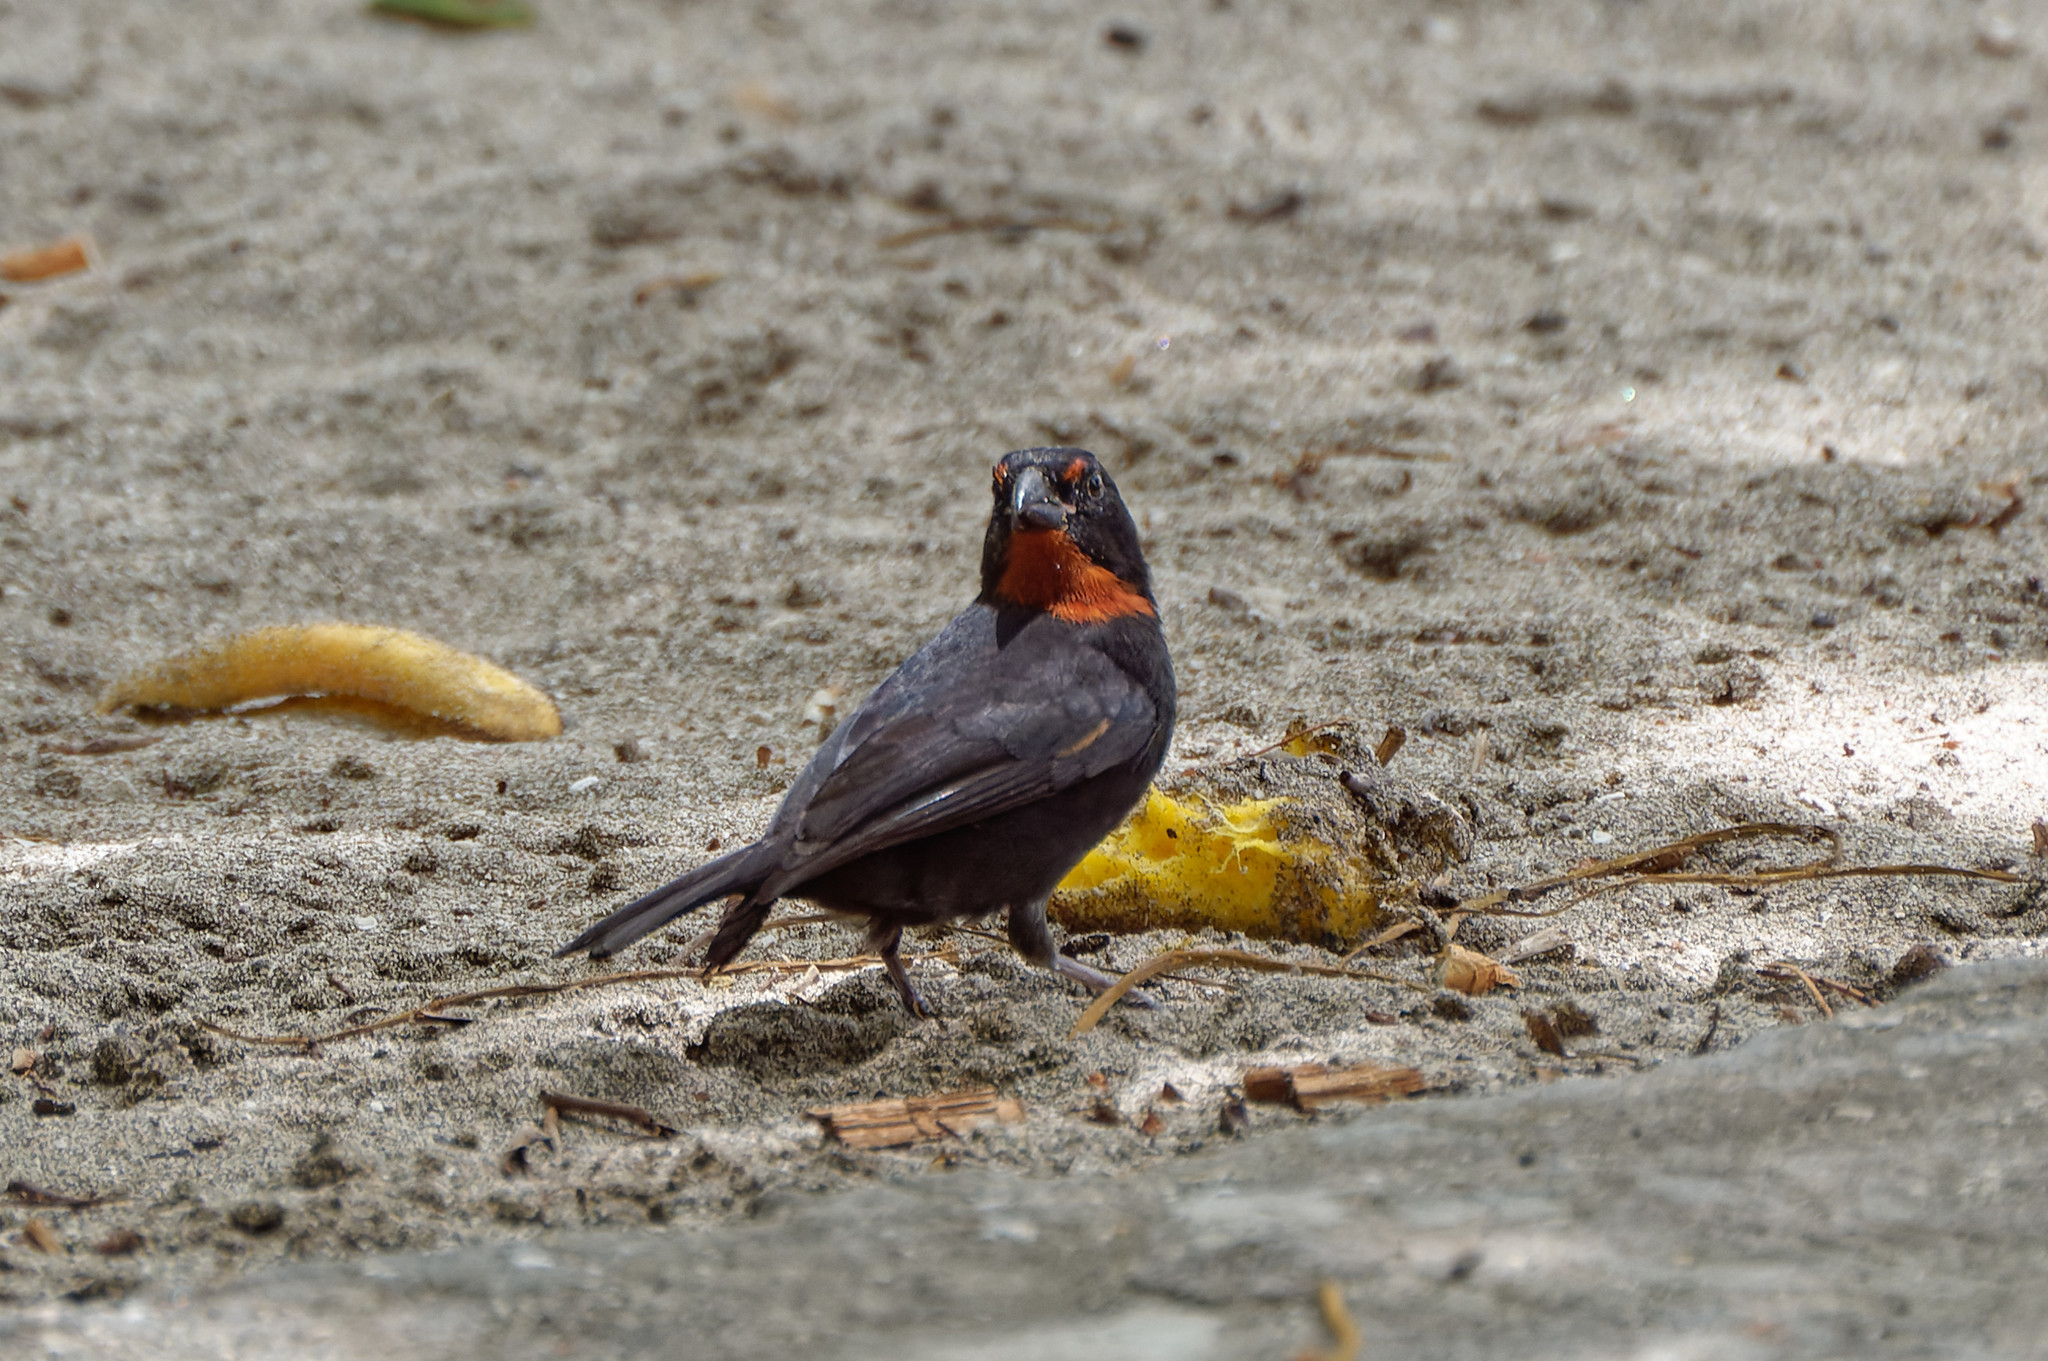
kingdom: Animalia
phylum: Chordata
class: Aves
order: Passeriformes
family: Thraupidae
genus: Loxigilla
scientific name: Loxigilla noctis
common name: Lesser antillean bullfinch
